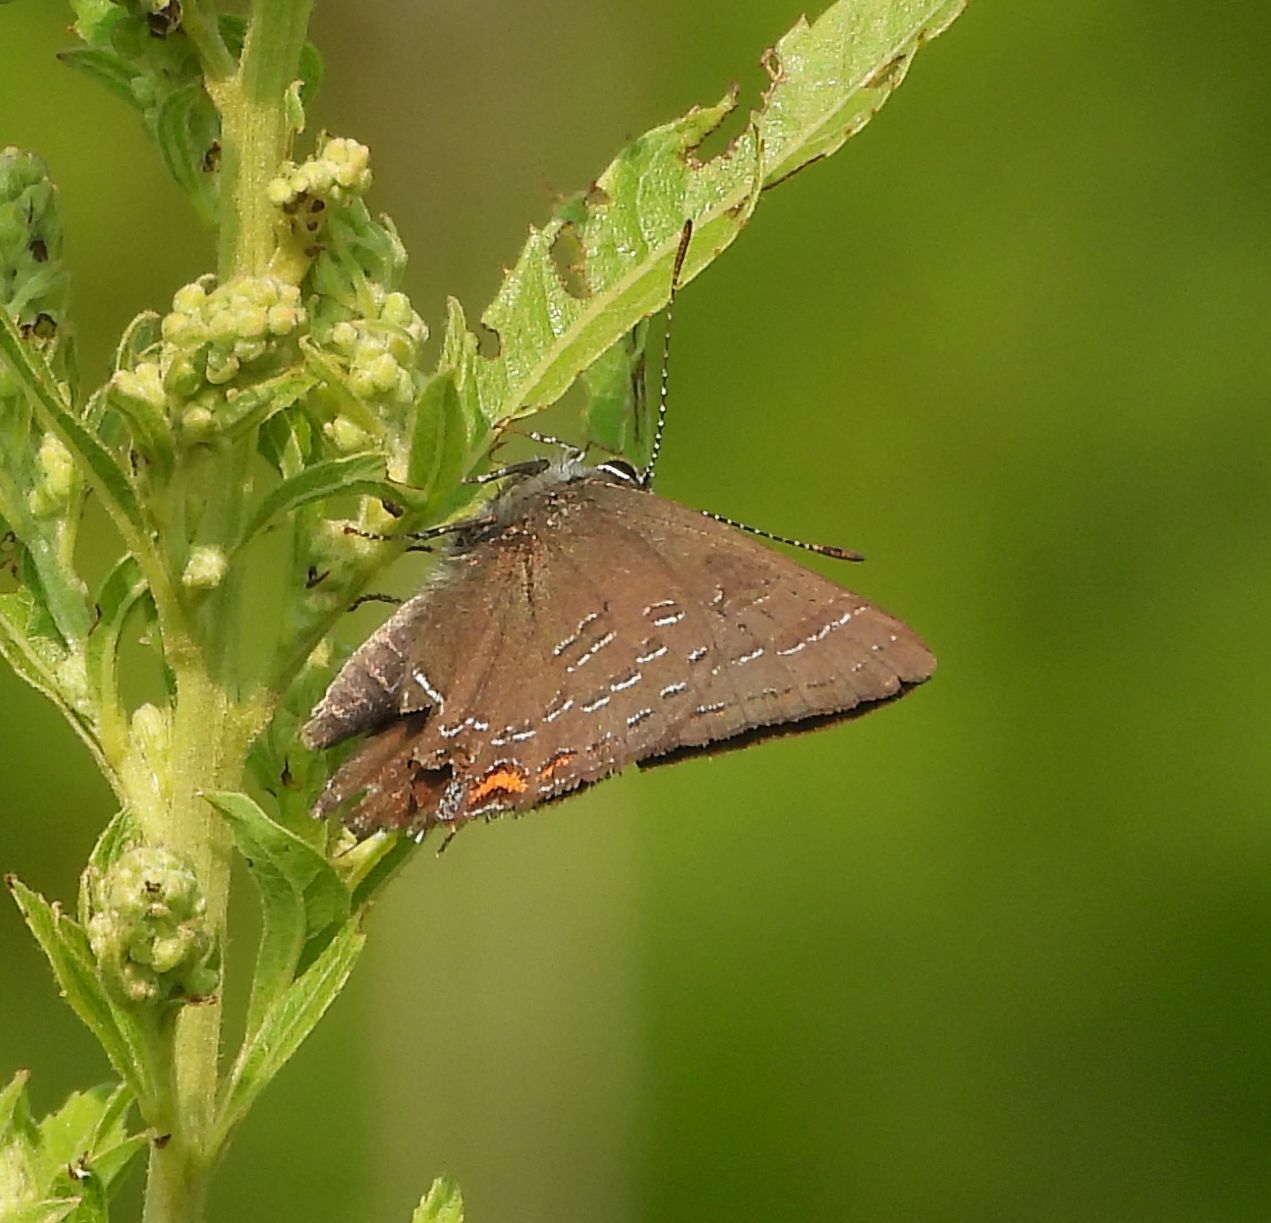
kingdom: Animalia
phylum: Arthropoda
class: Insecta
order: Lepidoptera
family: Lycaenidae
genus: Satyrium
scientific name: Satyrium calanus
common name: Banded hairstreak
